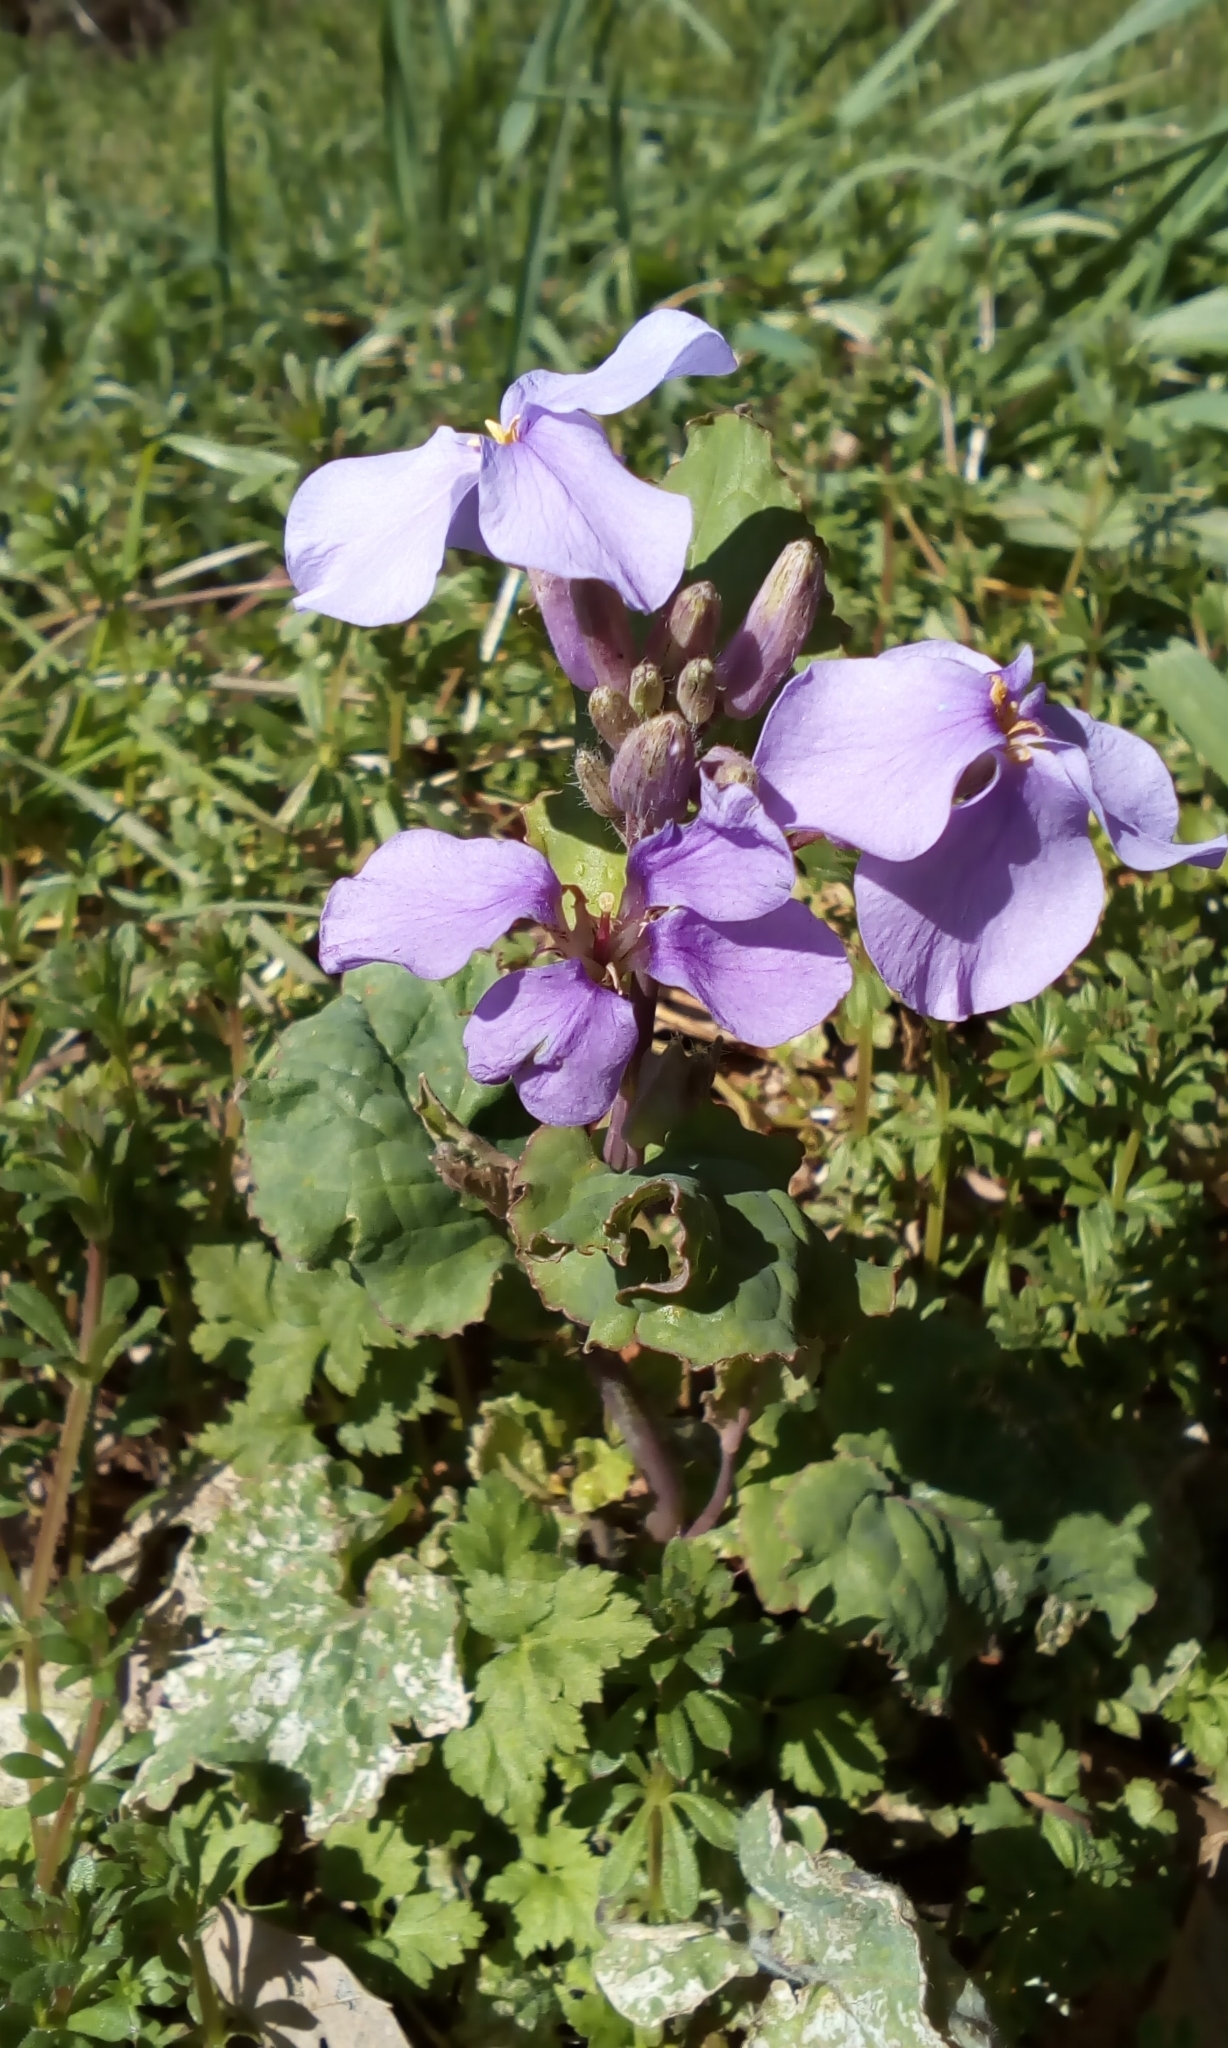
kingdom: Plantae
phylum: Tracheophyta
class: Magnoliopsida
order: Brassicales
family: Brassicaceae
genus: Orychophragmus
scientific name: Orychophragmus violaceus
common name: Mustard
